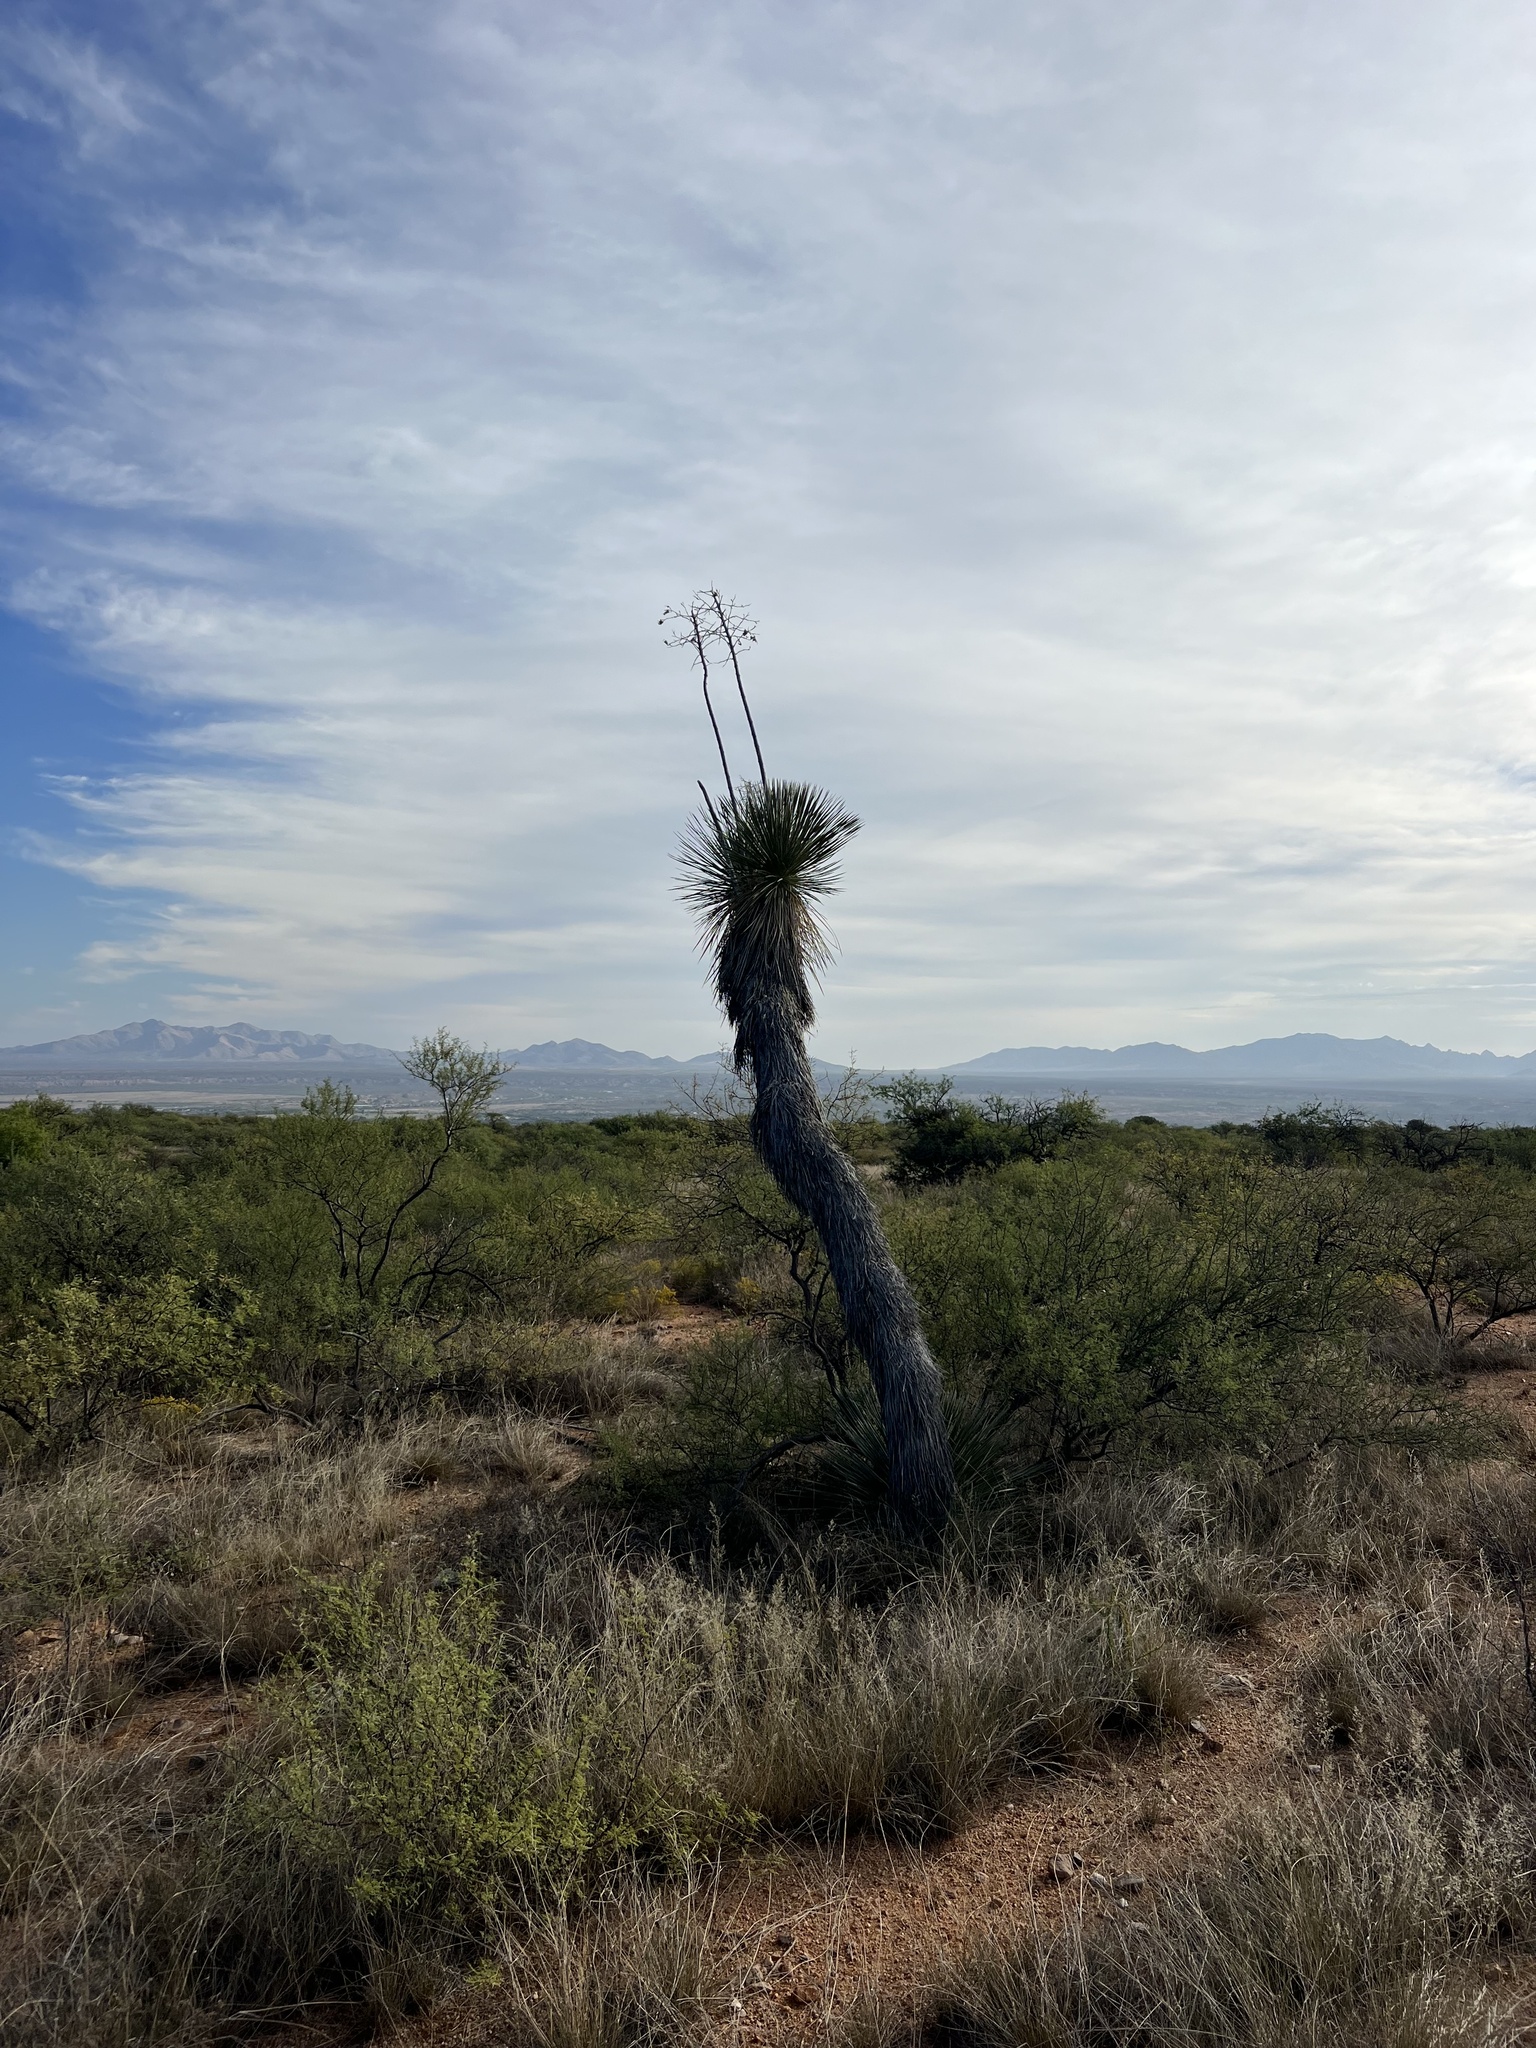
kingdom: Plantae
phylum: Tracheophyta
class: Liliopsida
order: Asparagales
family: Asparagaceae
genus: Yucca
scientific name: Yucca elata
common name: Palmella
